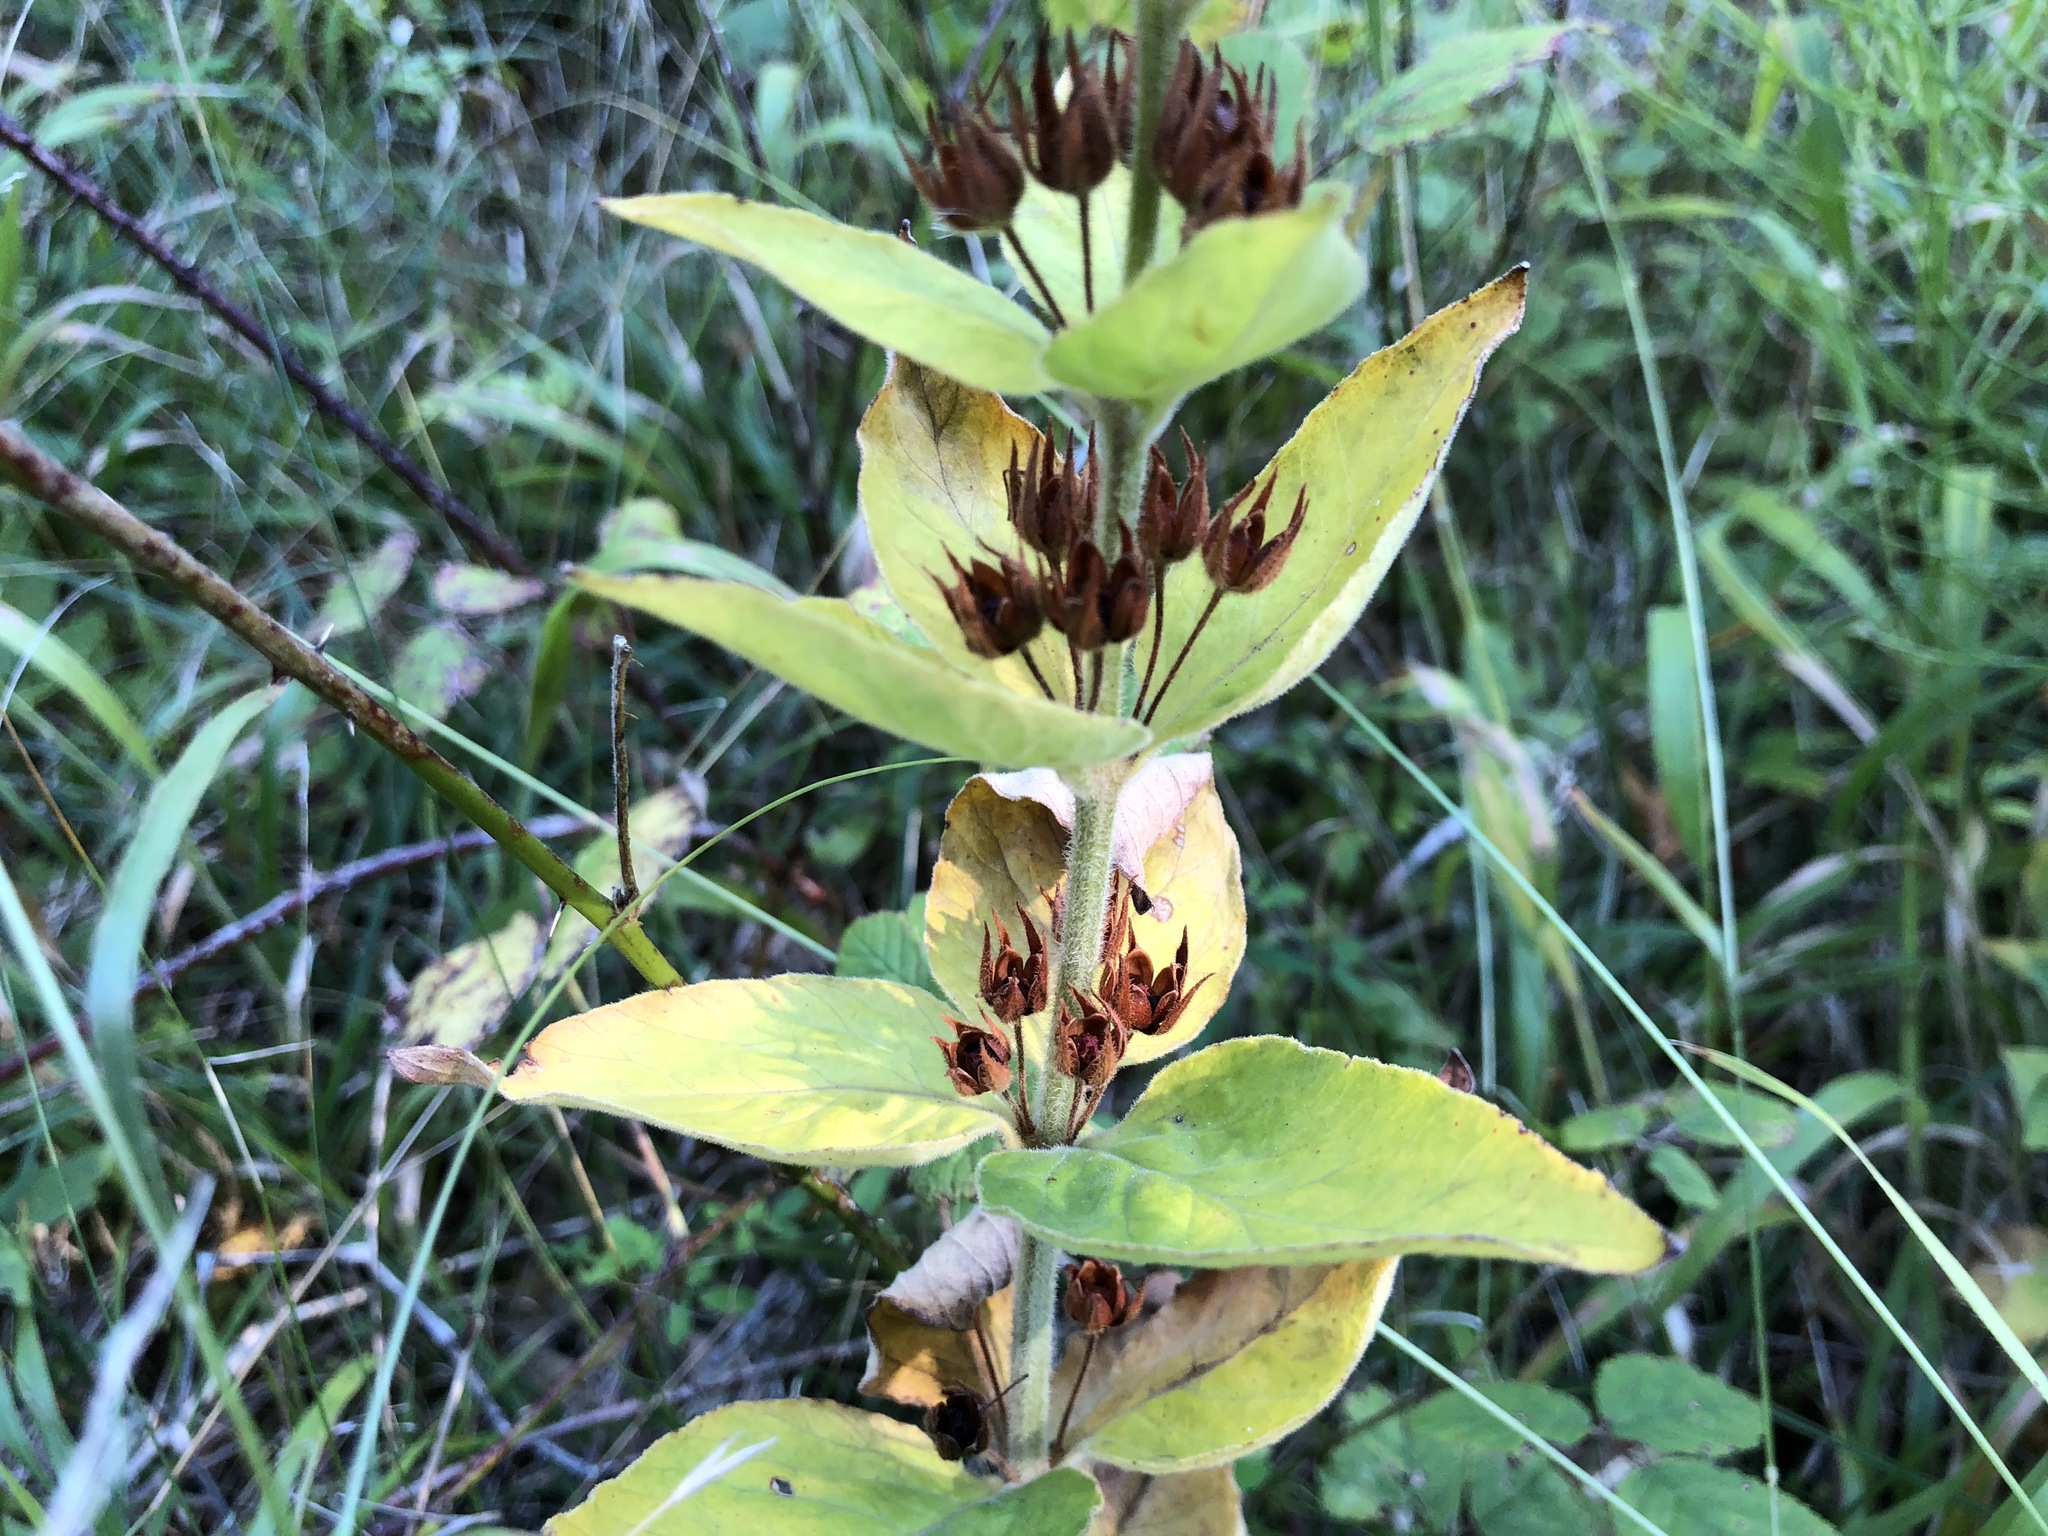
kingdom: Plantae
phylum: Tracheophyta
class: Magnoliopsida
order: Ericales
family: Primulaceae
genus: Lysimachia
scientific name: Lysimachia punctata
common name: Dotted loosestrife
